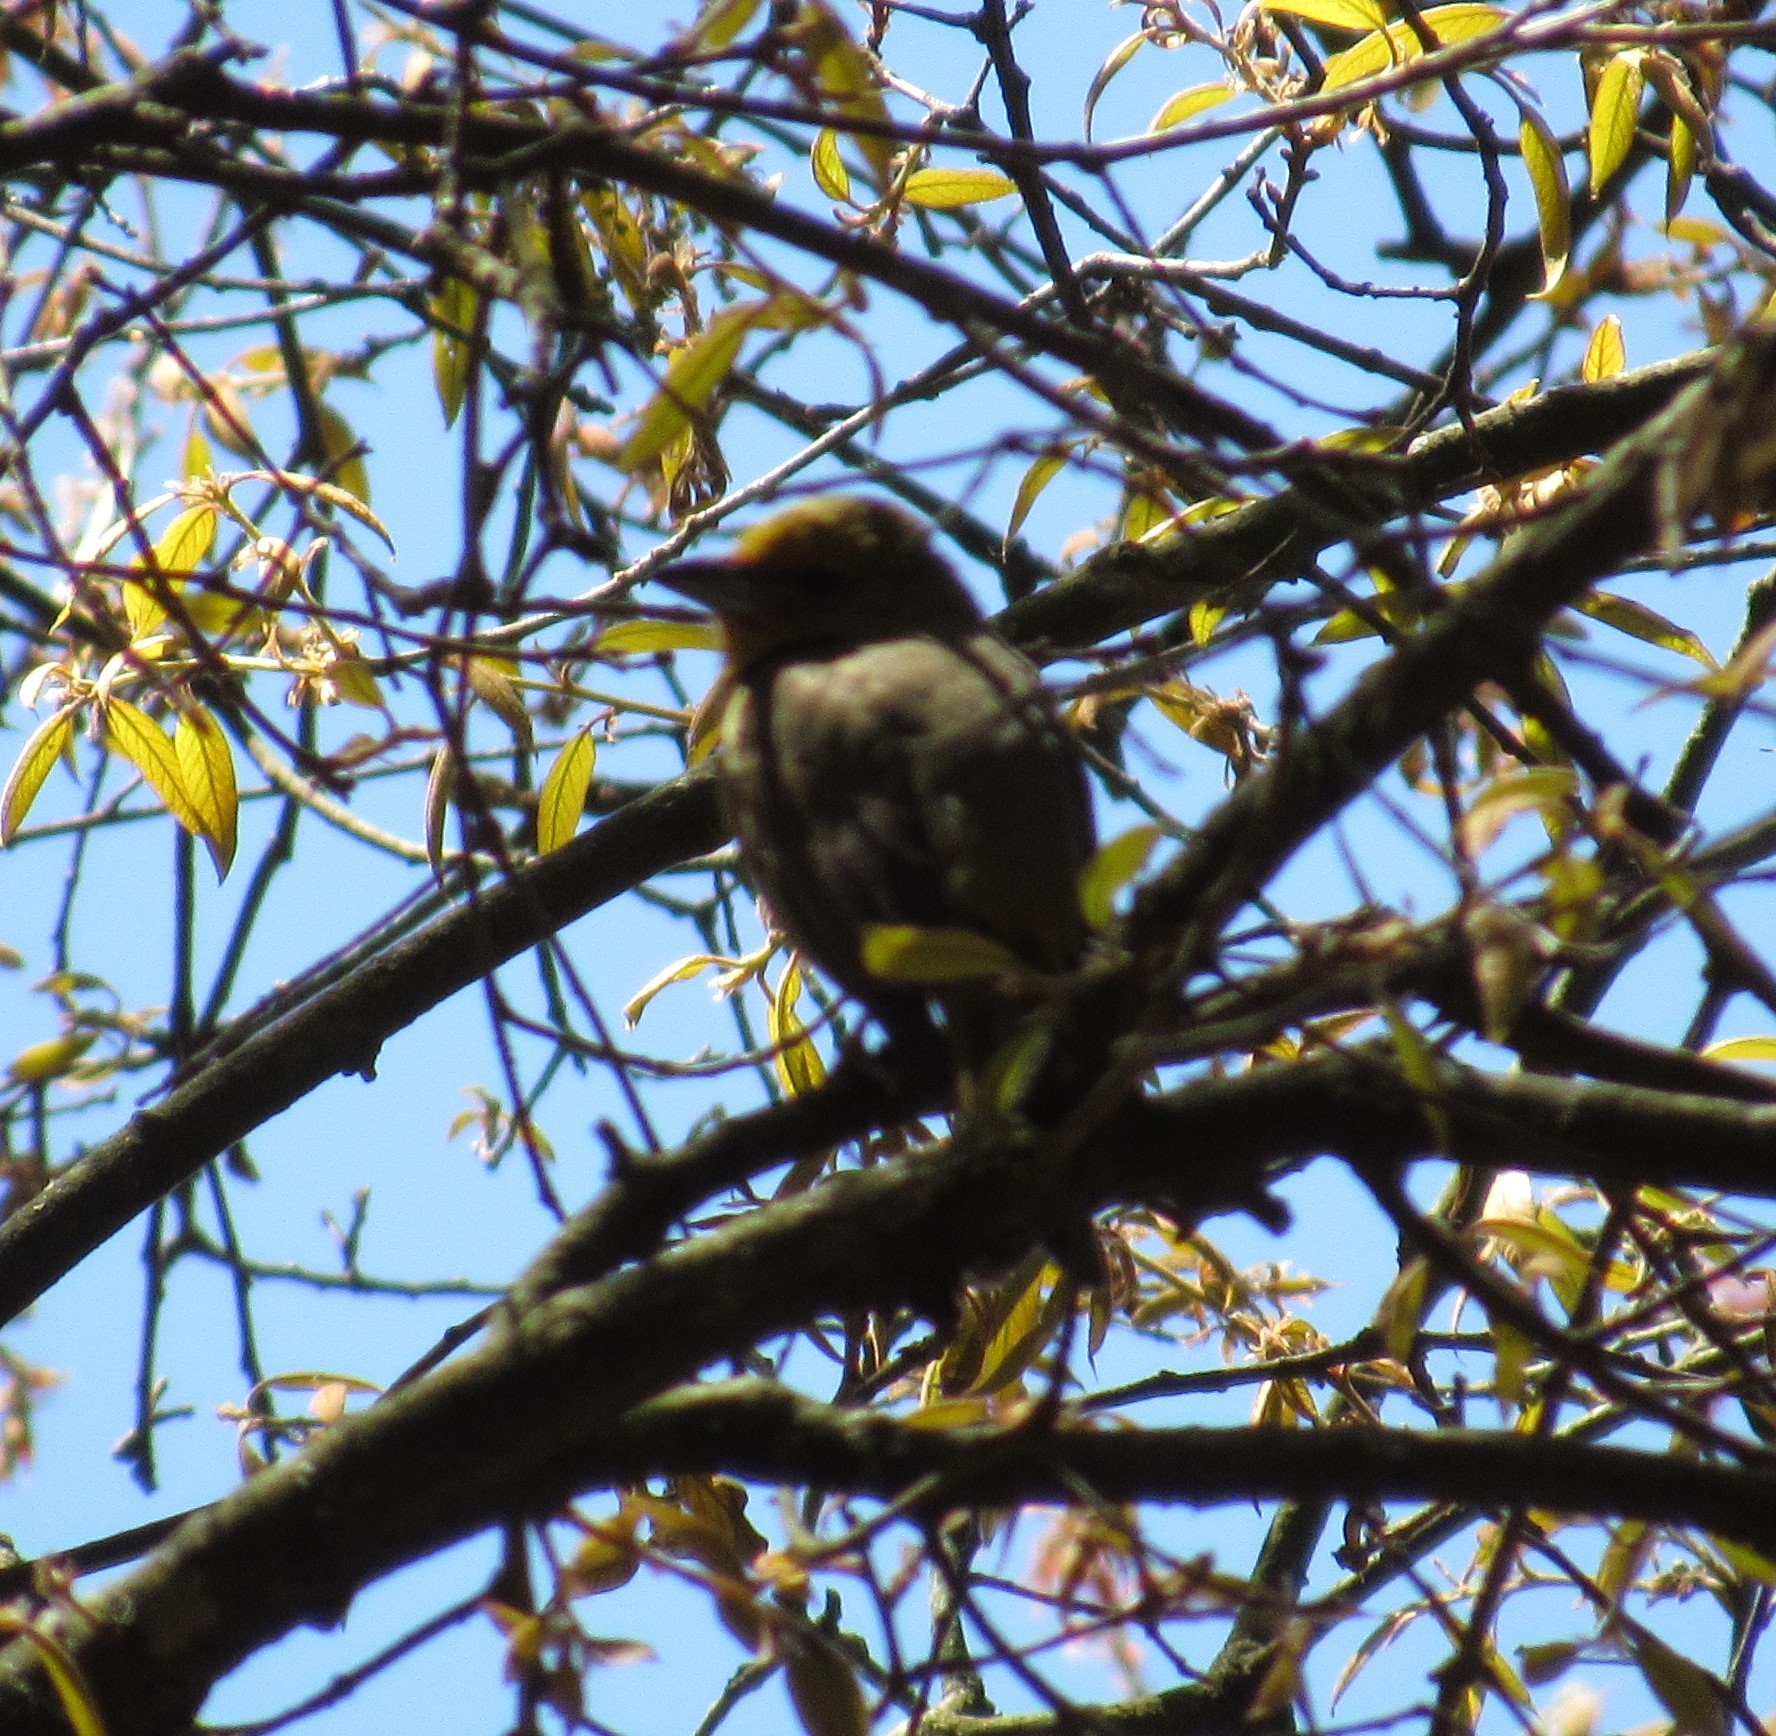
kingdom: Animalia
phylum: Chordata
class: Aves
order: Passeriformes
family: Cardinalidae
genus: Piranga
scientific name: Piranga flava
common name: Red tanager
